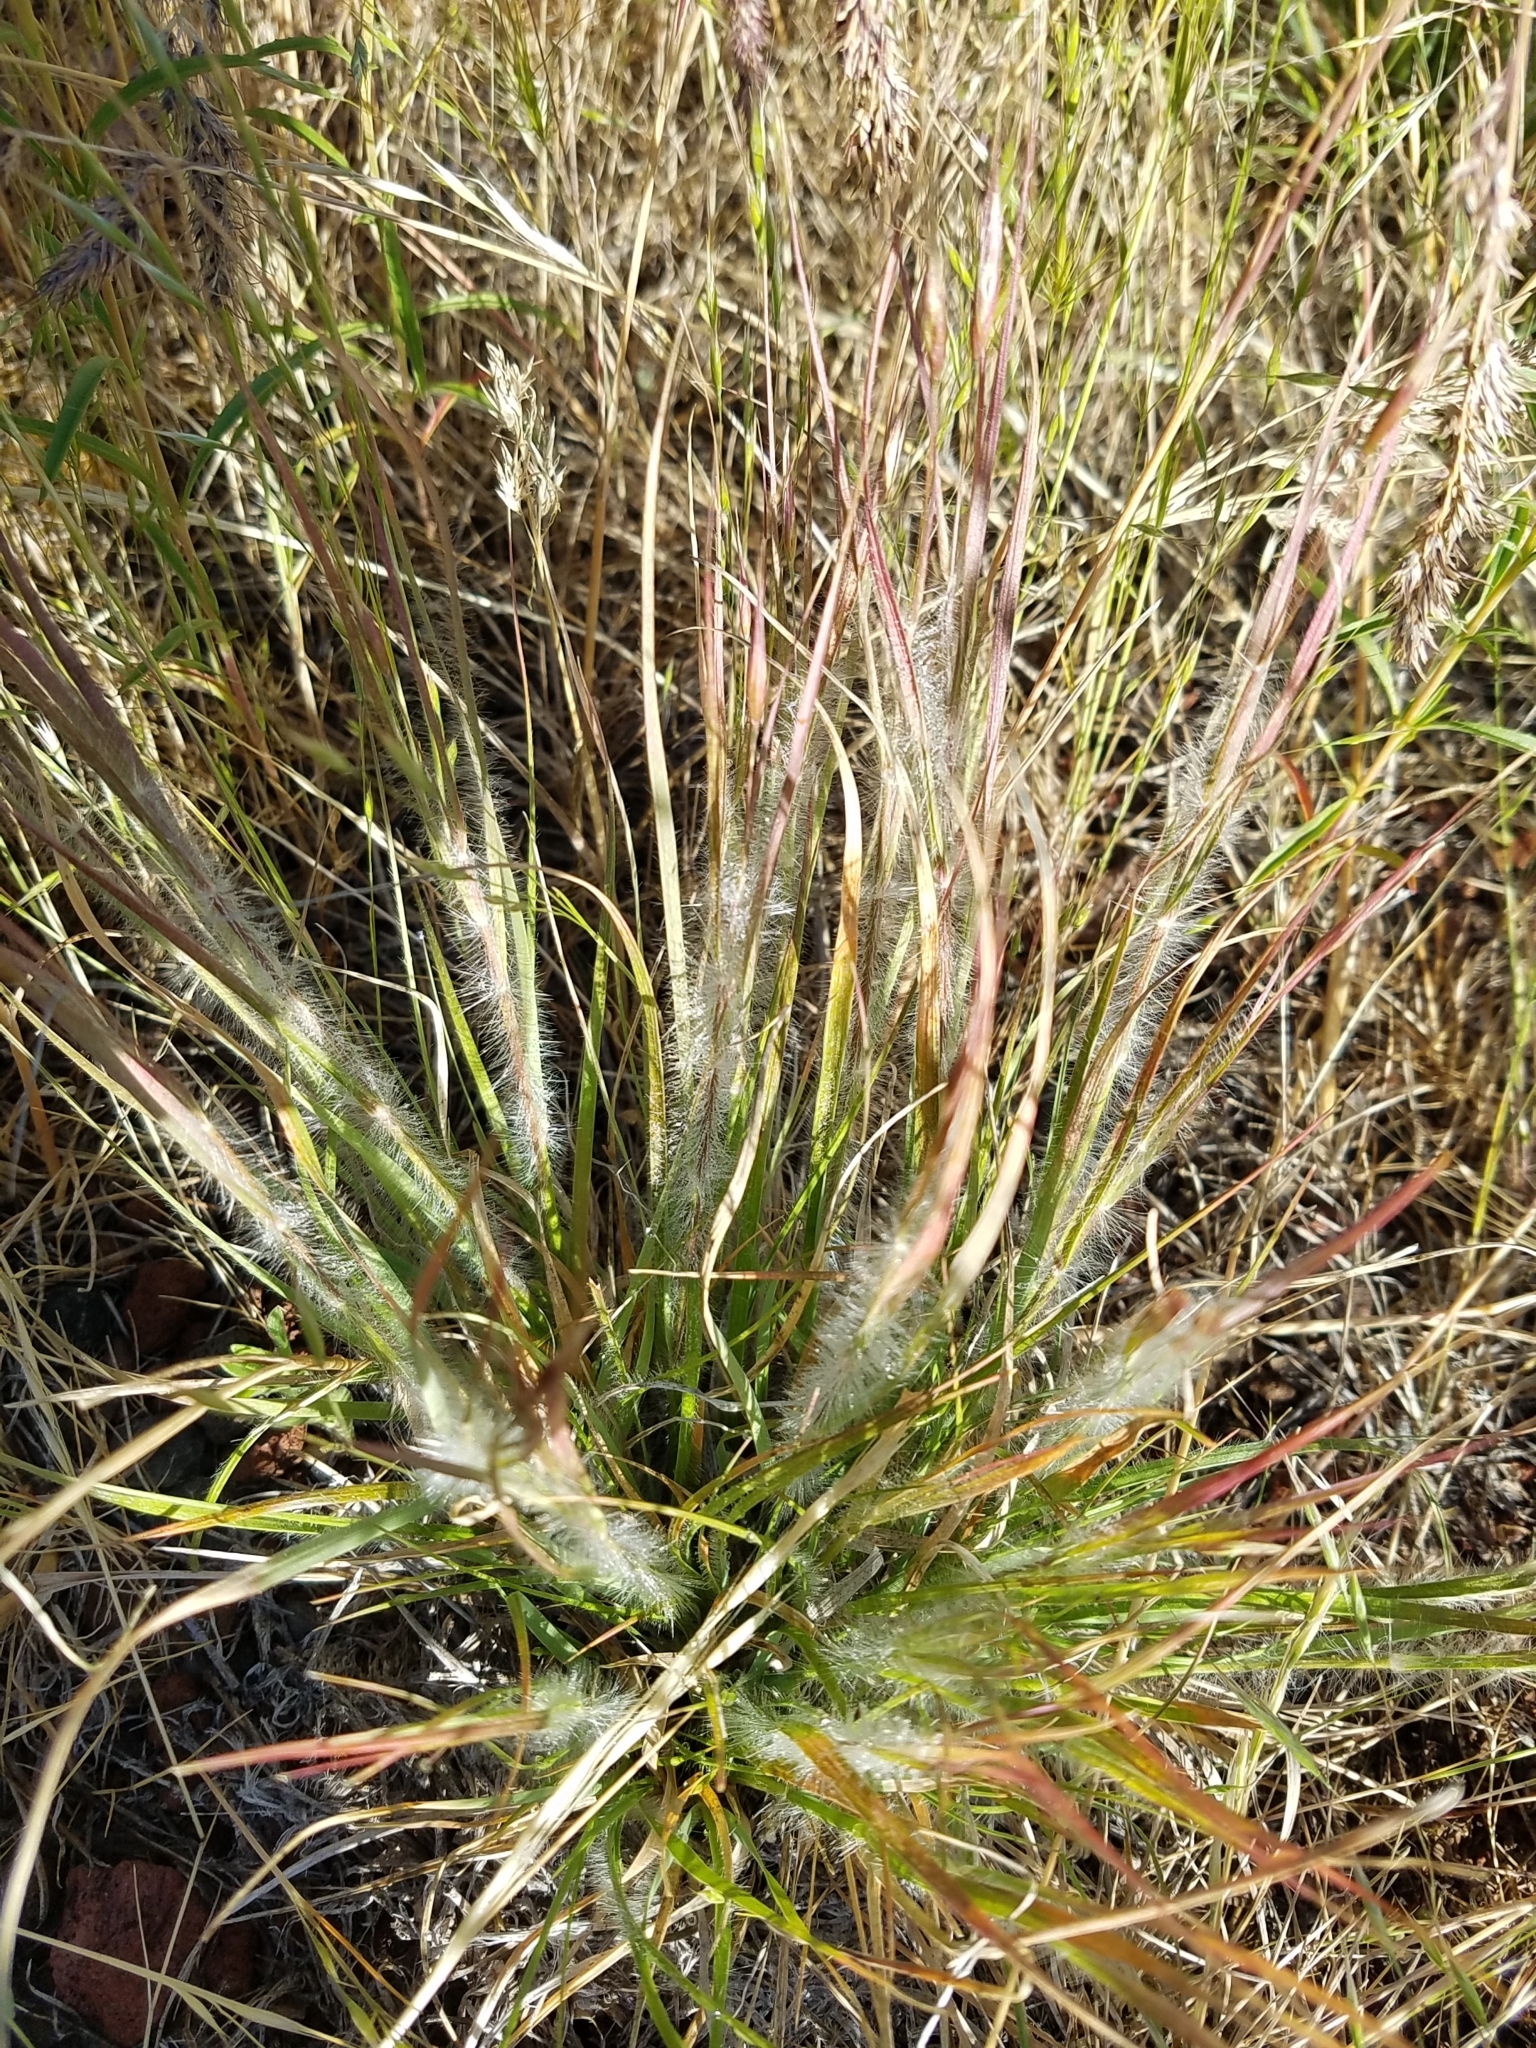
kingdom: Plantae
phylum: Tracheophyta
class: Liliopsida
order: Poales
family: Poaceae
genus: Danthonia
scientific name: Danthonia unispicata
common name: Few-flowered oatgrass
